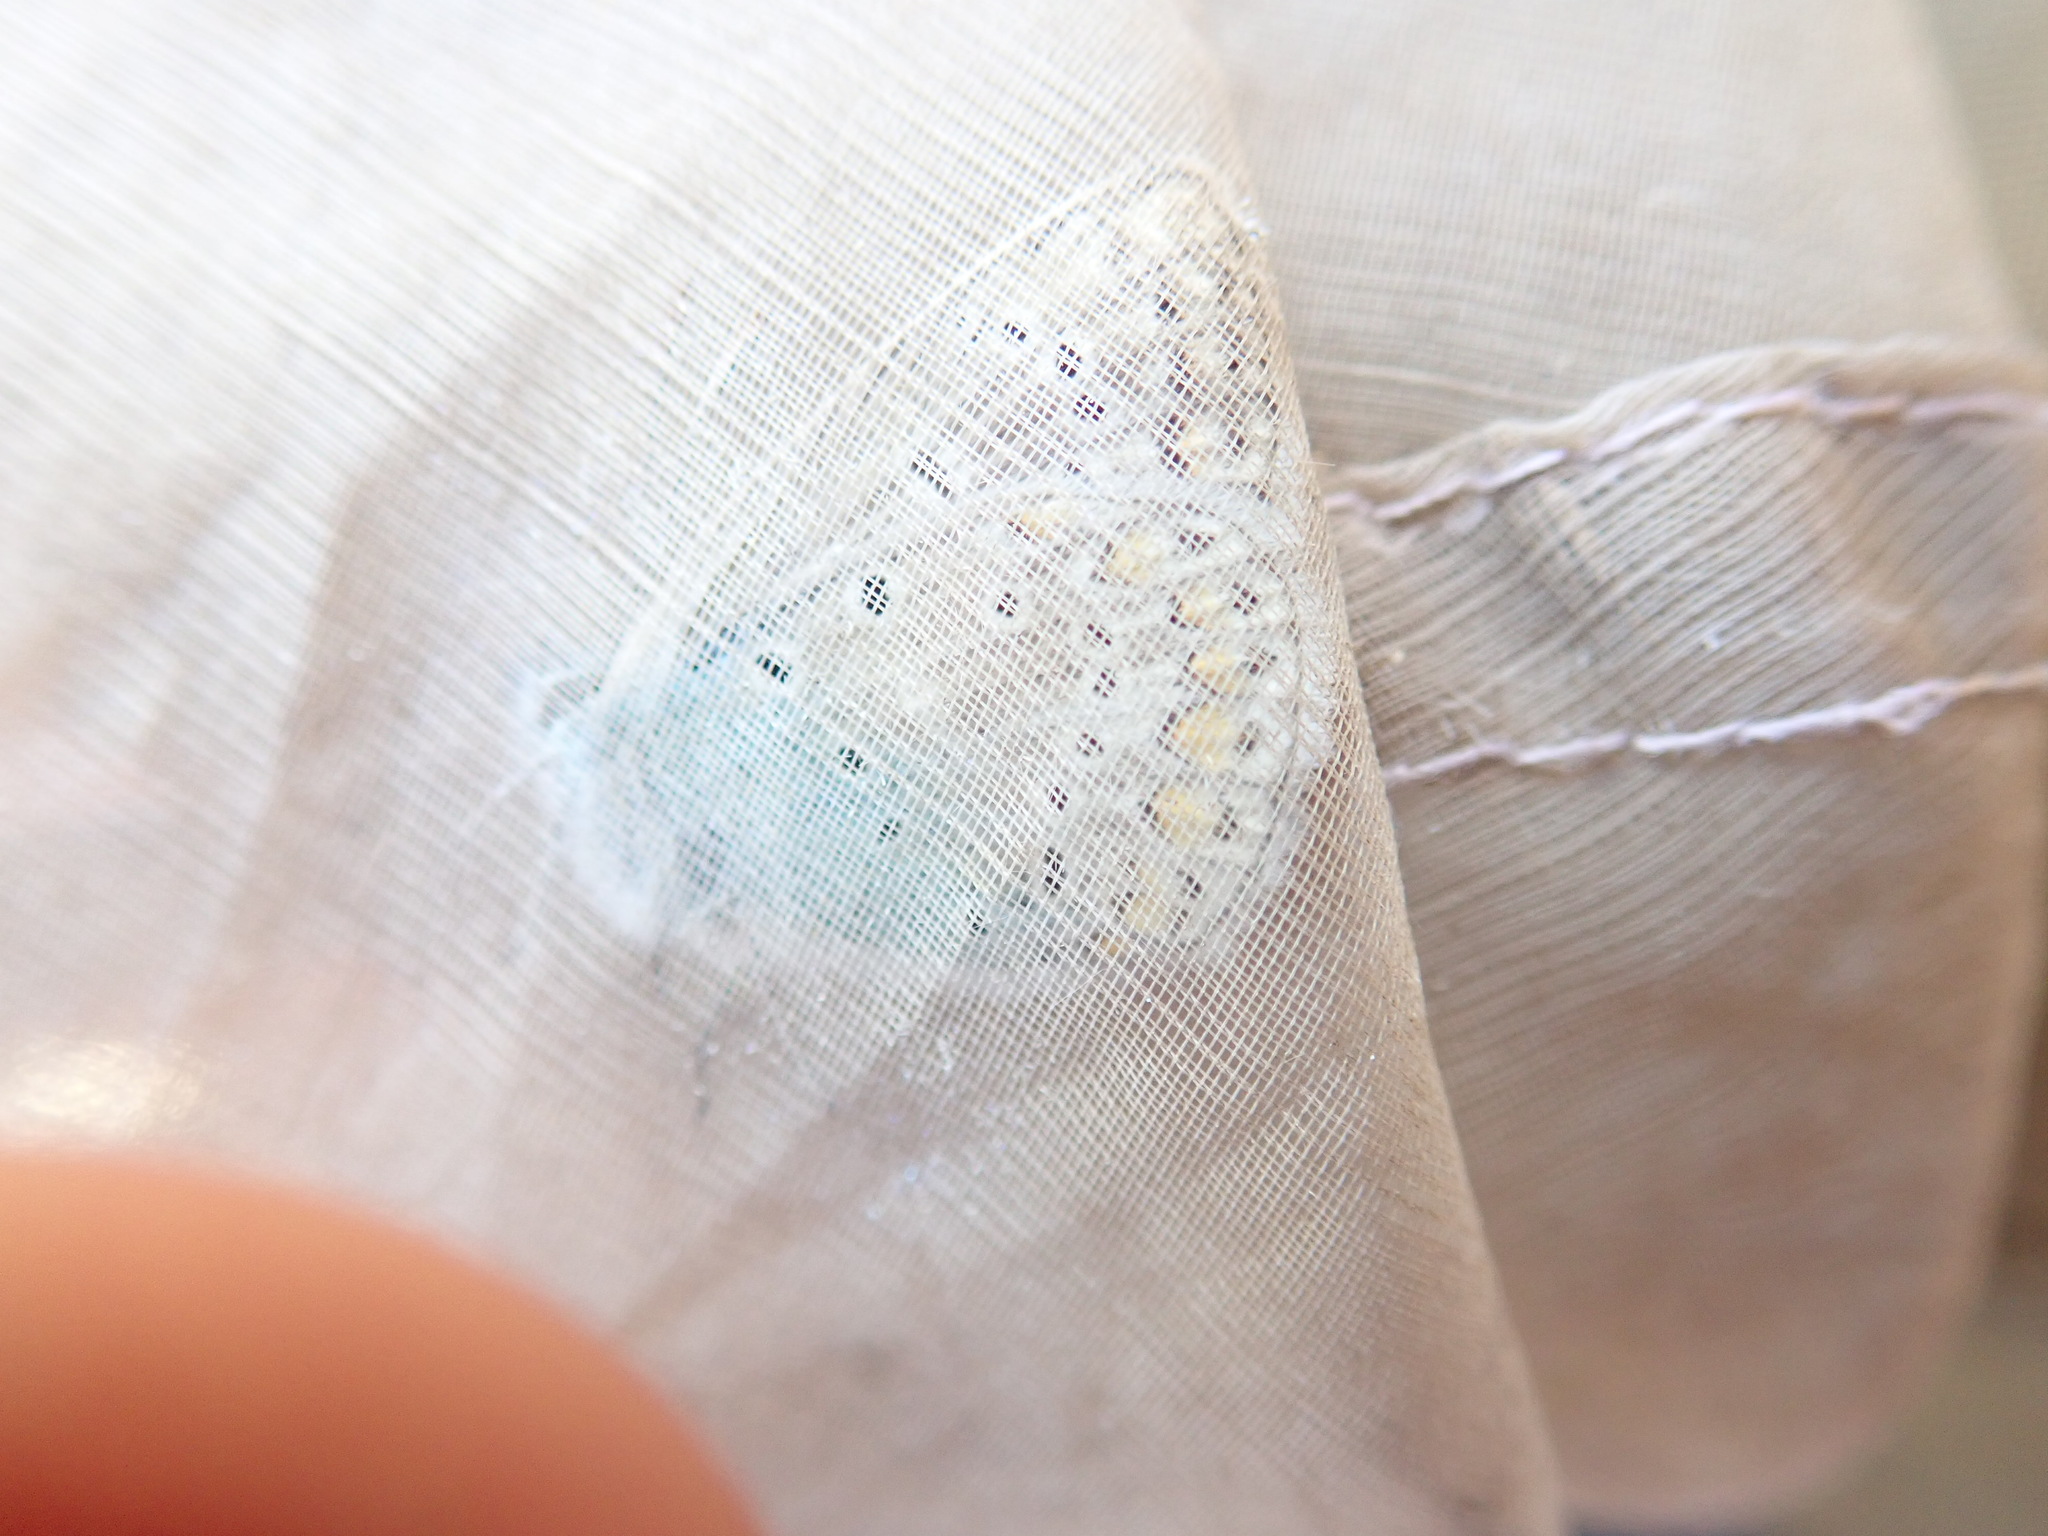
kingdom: Animalia
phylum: Arthropoda
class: Insecta
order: Lepidoptera
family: Lycaenidae
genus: Polyommatus
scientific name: Polyommatus icarus
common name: Common blue
